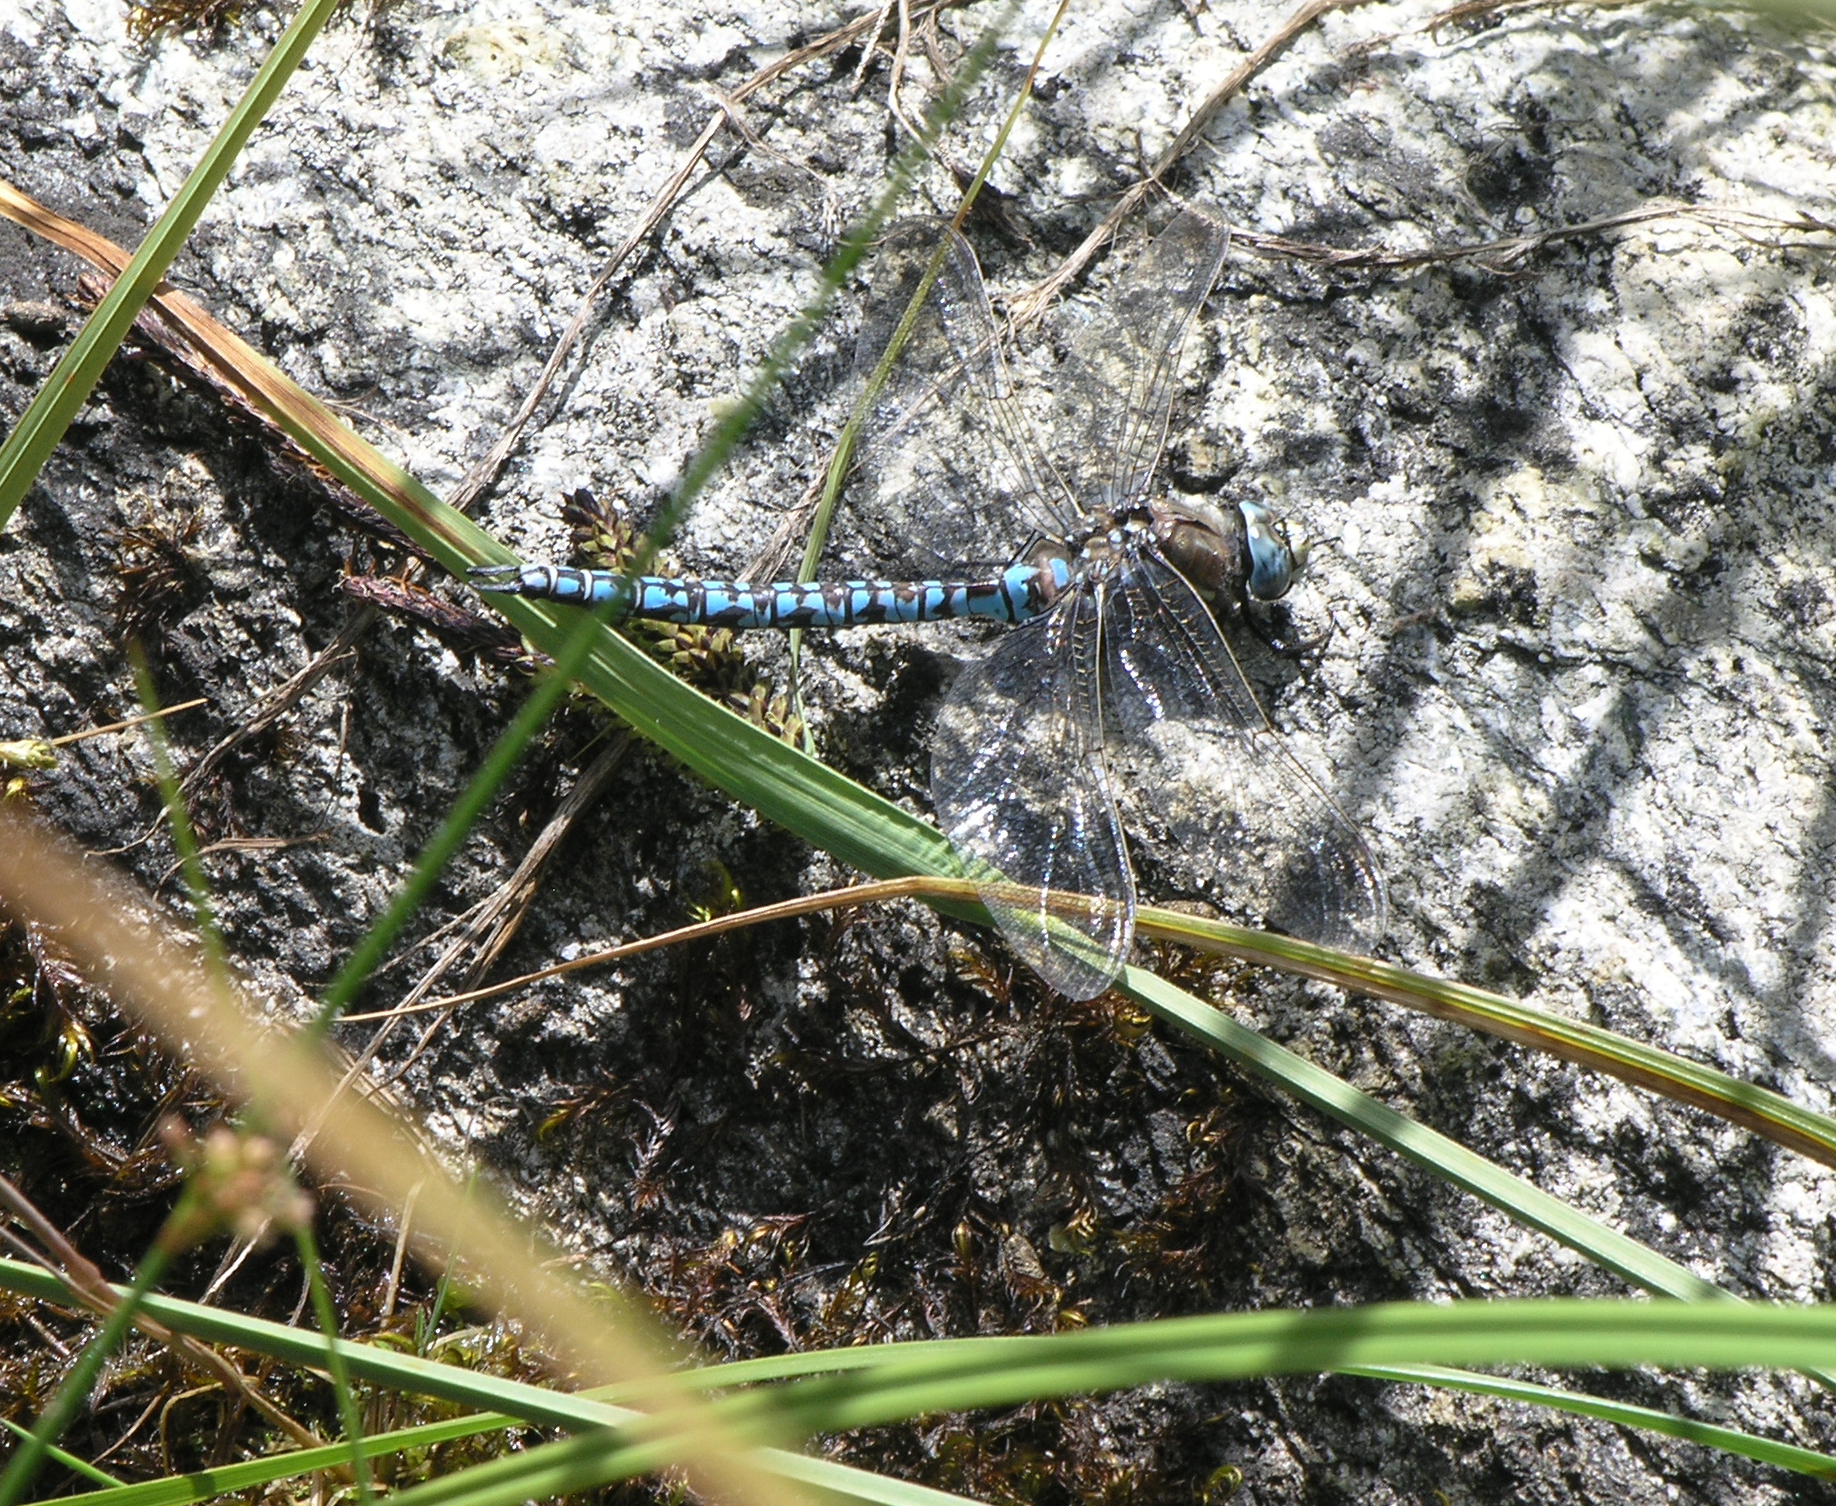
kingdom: Animalia
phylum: Arthropoda
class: Insecta
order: Odonata
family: Aeshnidae
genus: Aeshna
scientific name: Aeshna caerulea
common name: Azure hawker
